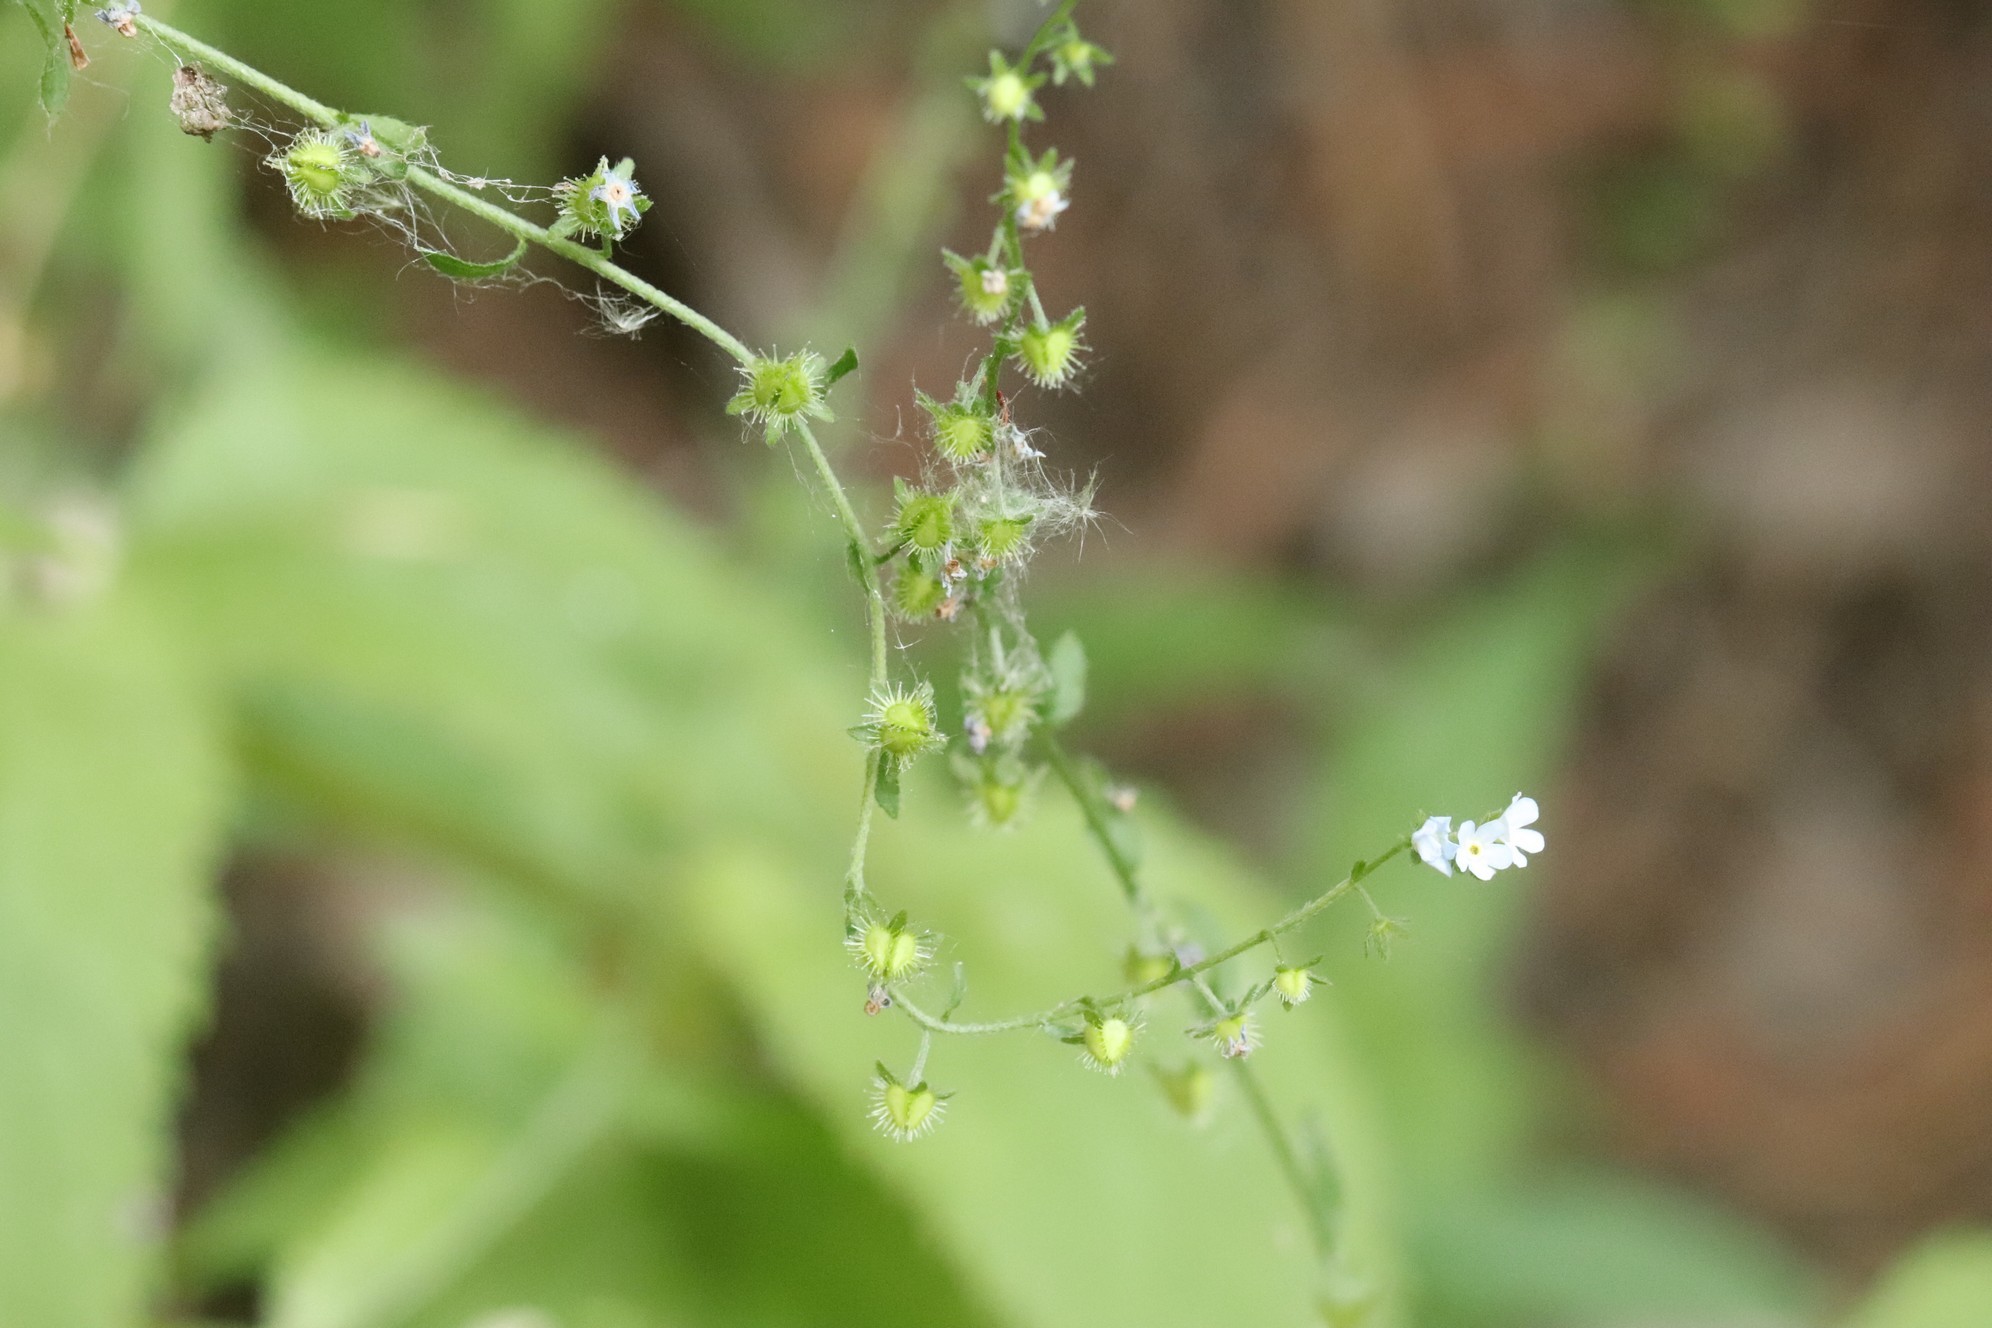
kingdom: Plantae
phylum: Tracheophyta
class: Magnoliopsida
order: Boraginales
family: Boraginaceae
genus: Lappula
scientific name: Lappula squarrosa
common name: European stickseed
